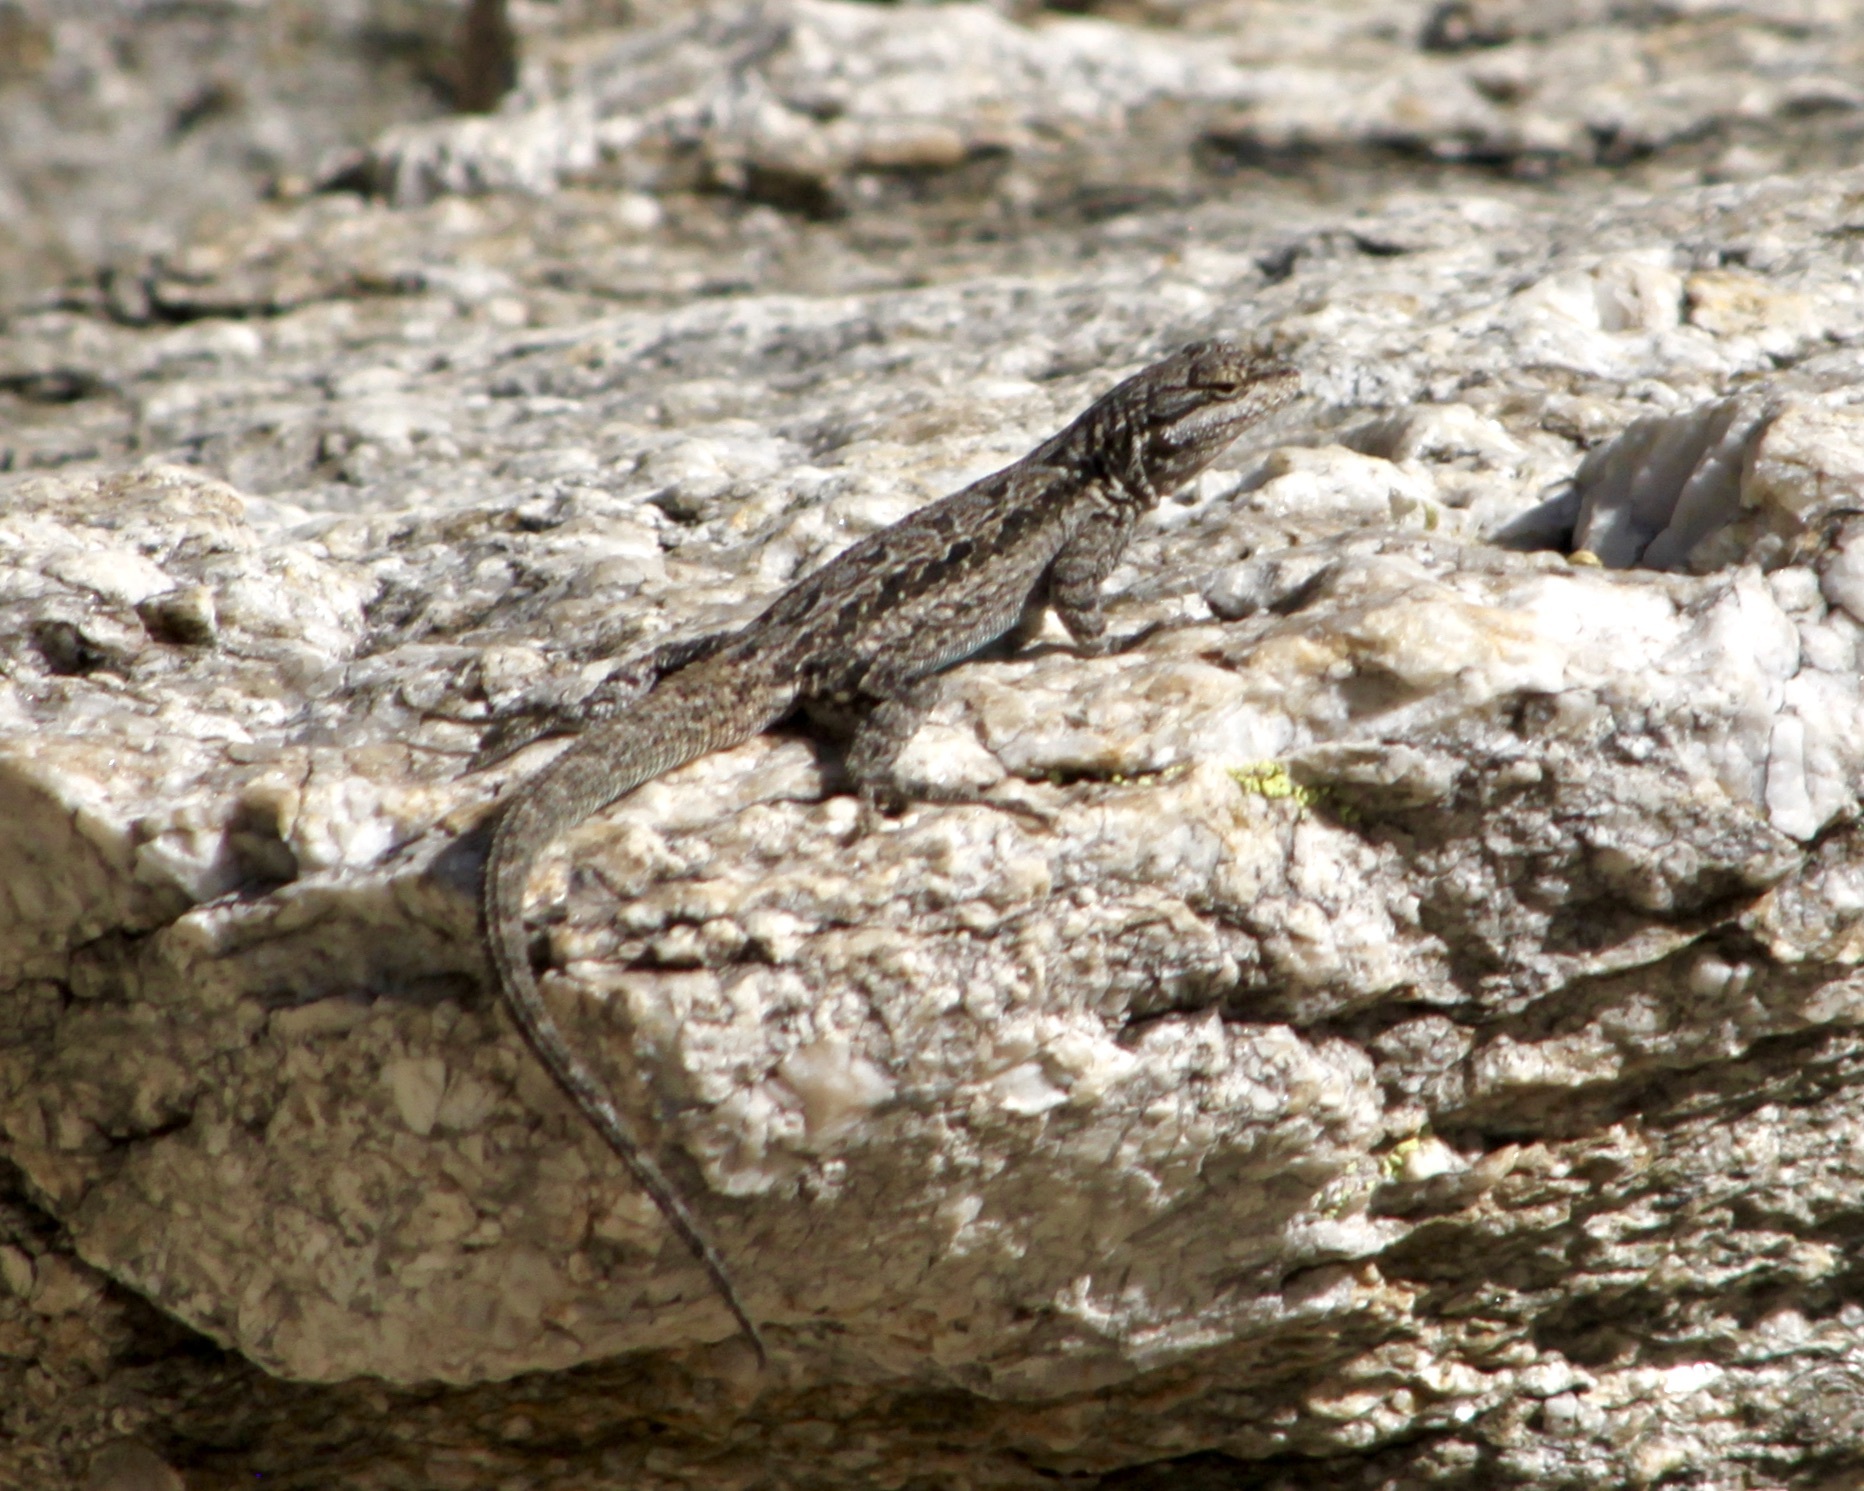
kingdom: Animalia
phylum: Chordata
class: Squamata
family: Phrynosomatidae
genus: Urosaurus
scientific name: Urosaurus ornatus
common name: Ornate tree lizard
